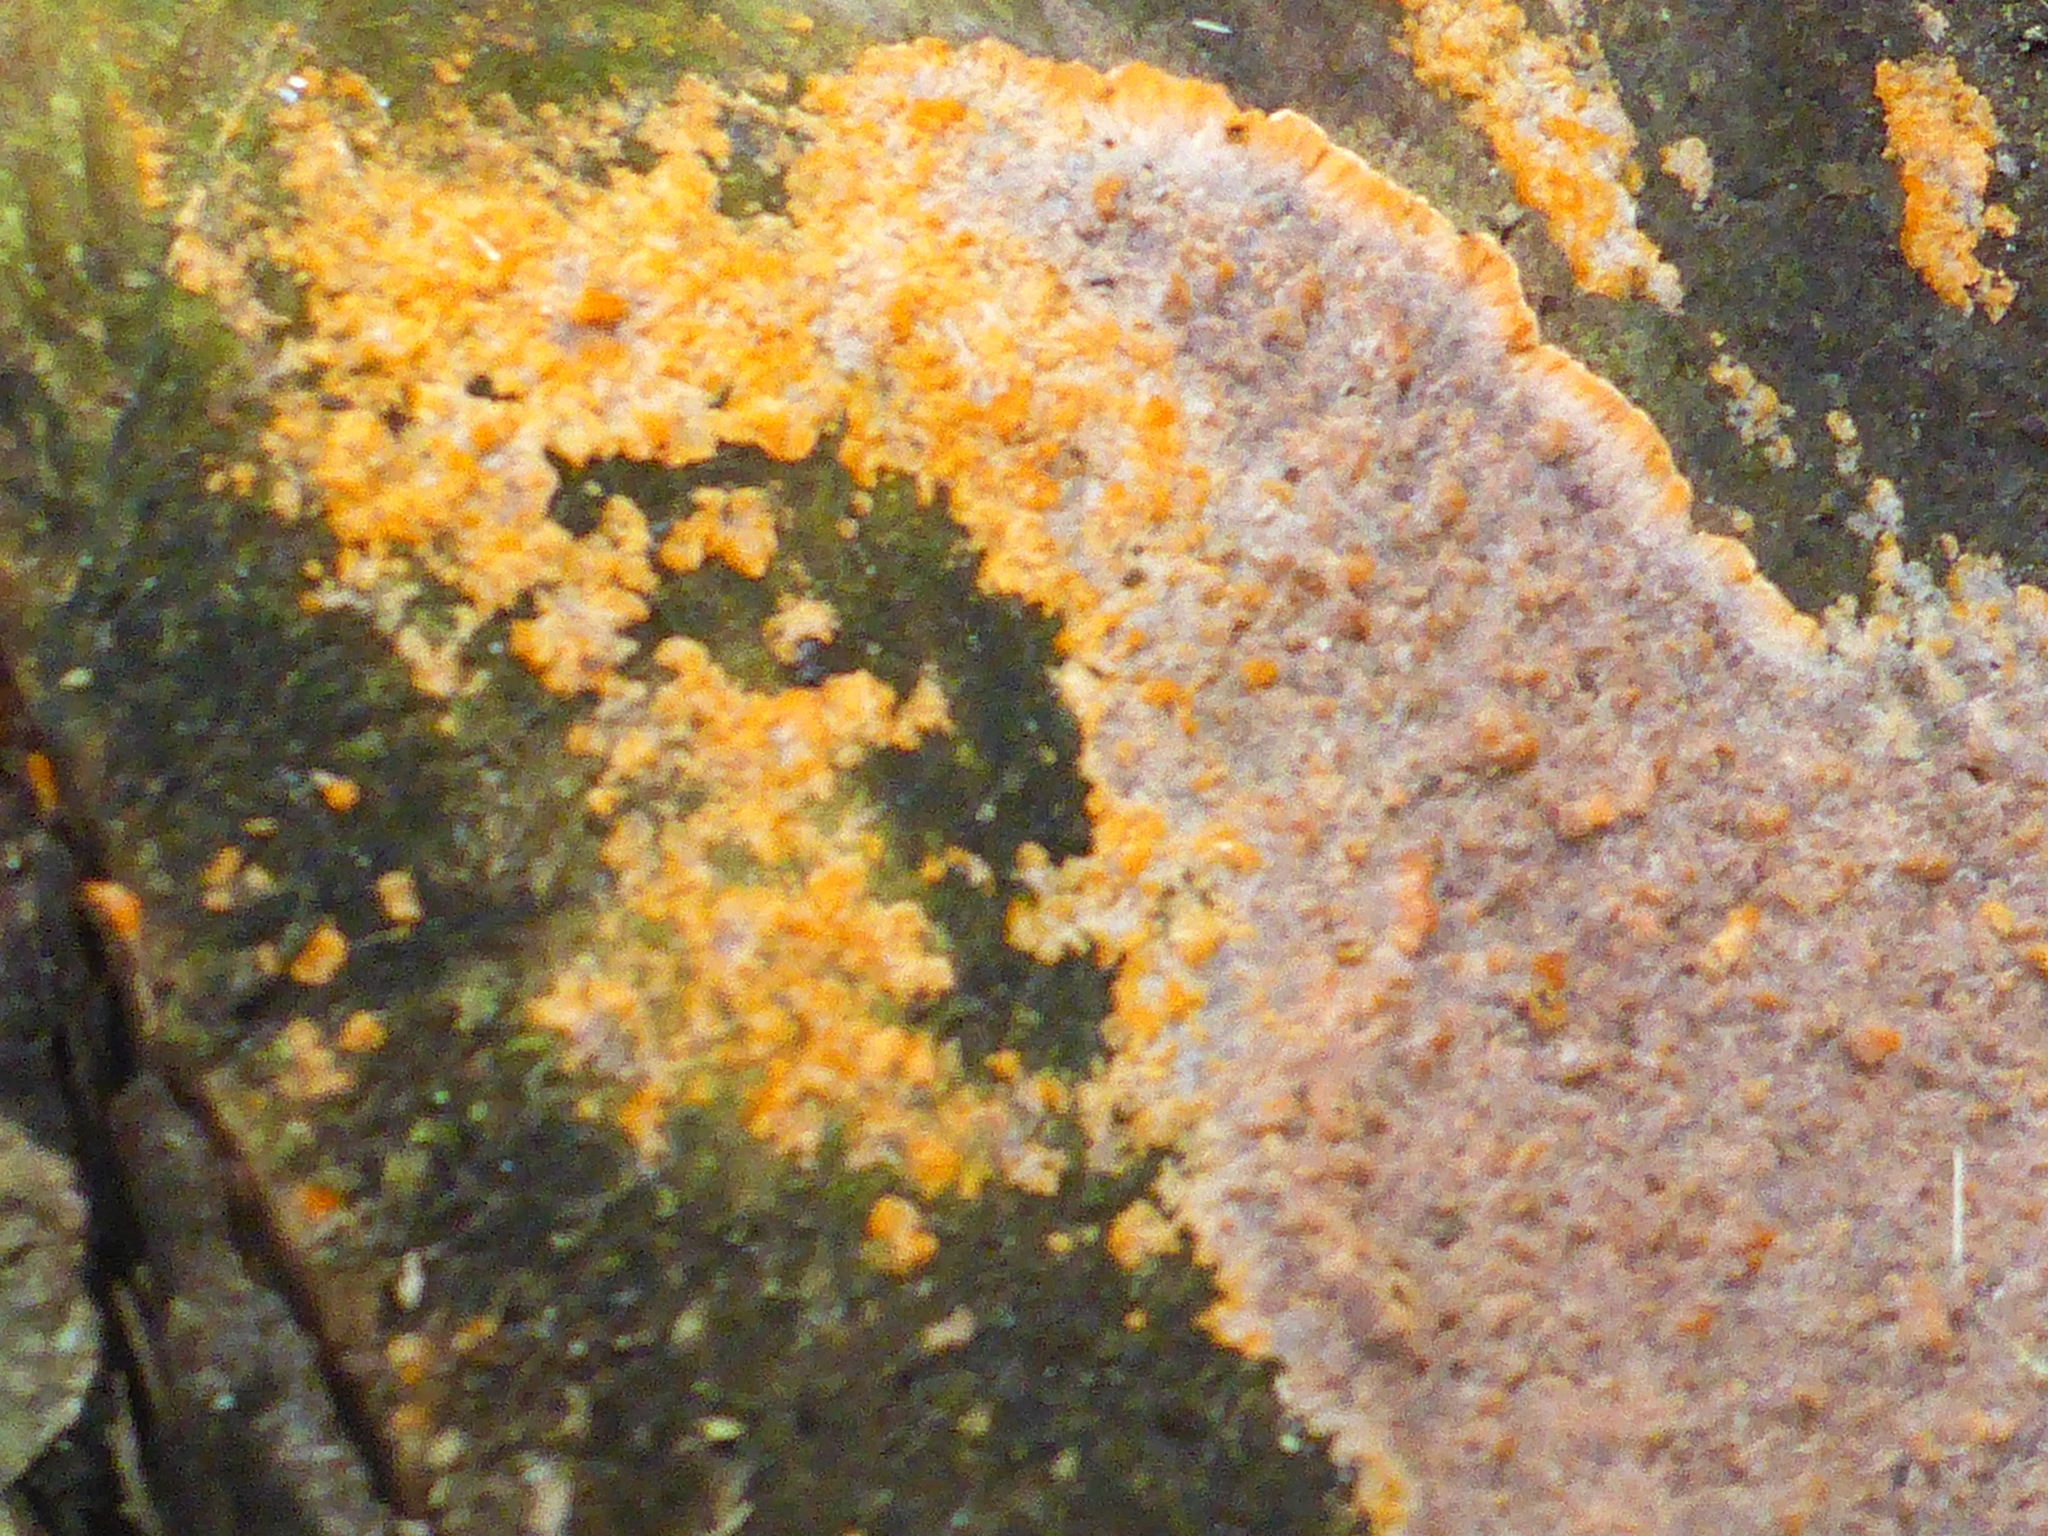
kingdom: Fungi
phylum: Basidiomycota
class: Agaricomycetes
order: Polyporales
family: Meruliaceae
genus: Phlebia
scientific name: Phlebia radiata
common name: Wrinkled crust
